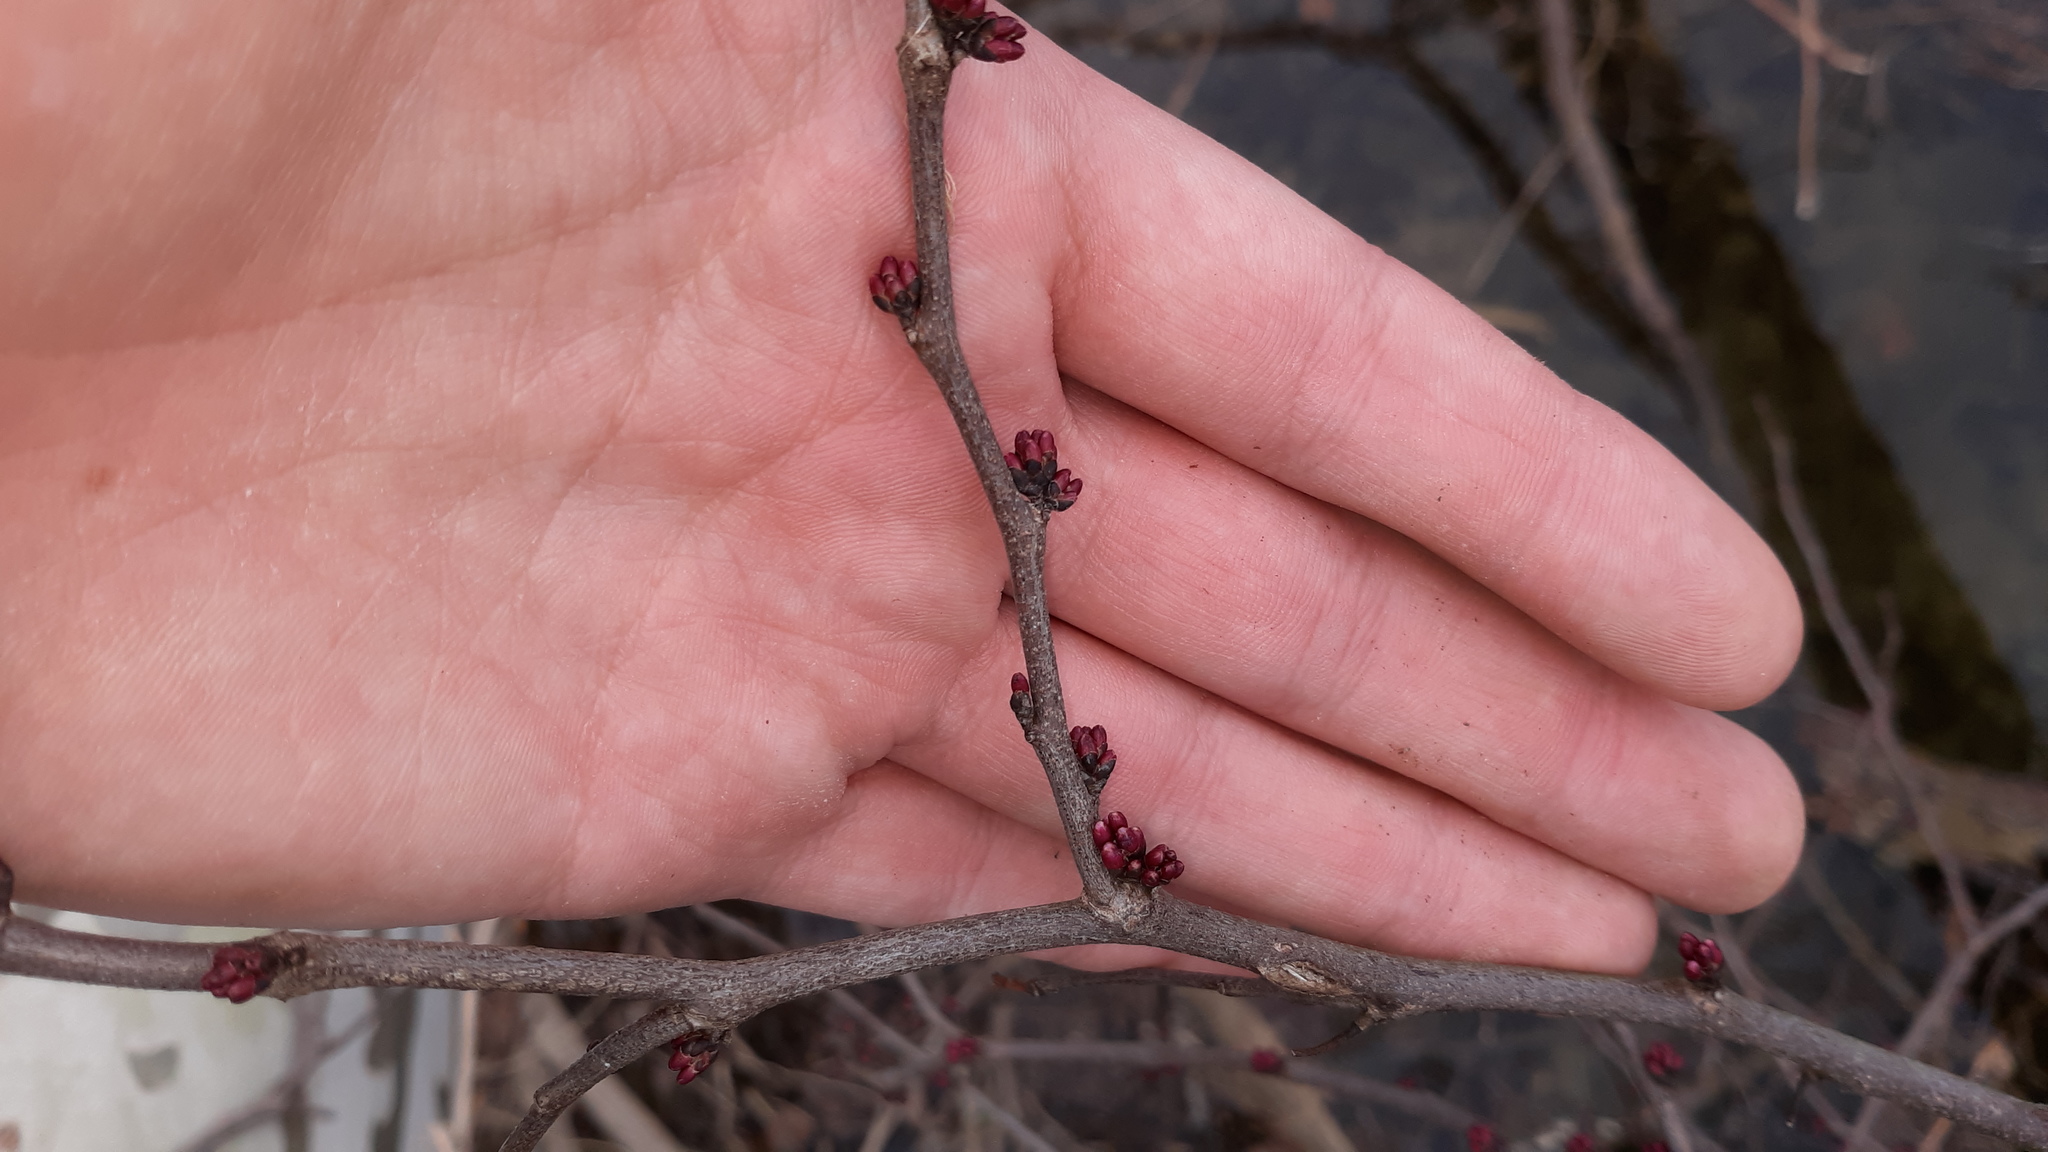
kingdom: Plantae
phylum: Tracheophyta
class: Magnoliopsida
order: Fabales
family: Fabaceae
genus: Cercis
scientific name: Cercis canadensis
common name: Eastern redbud
